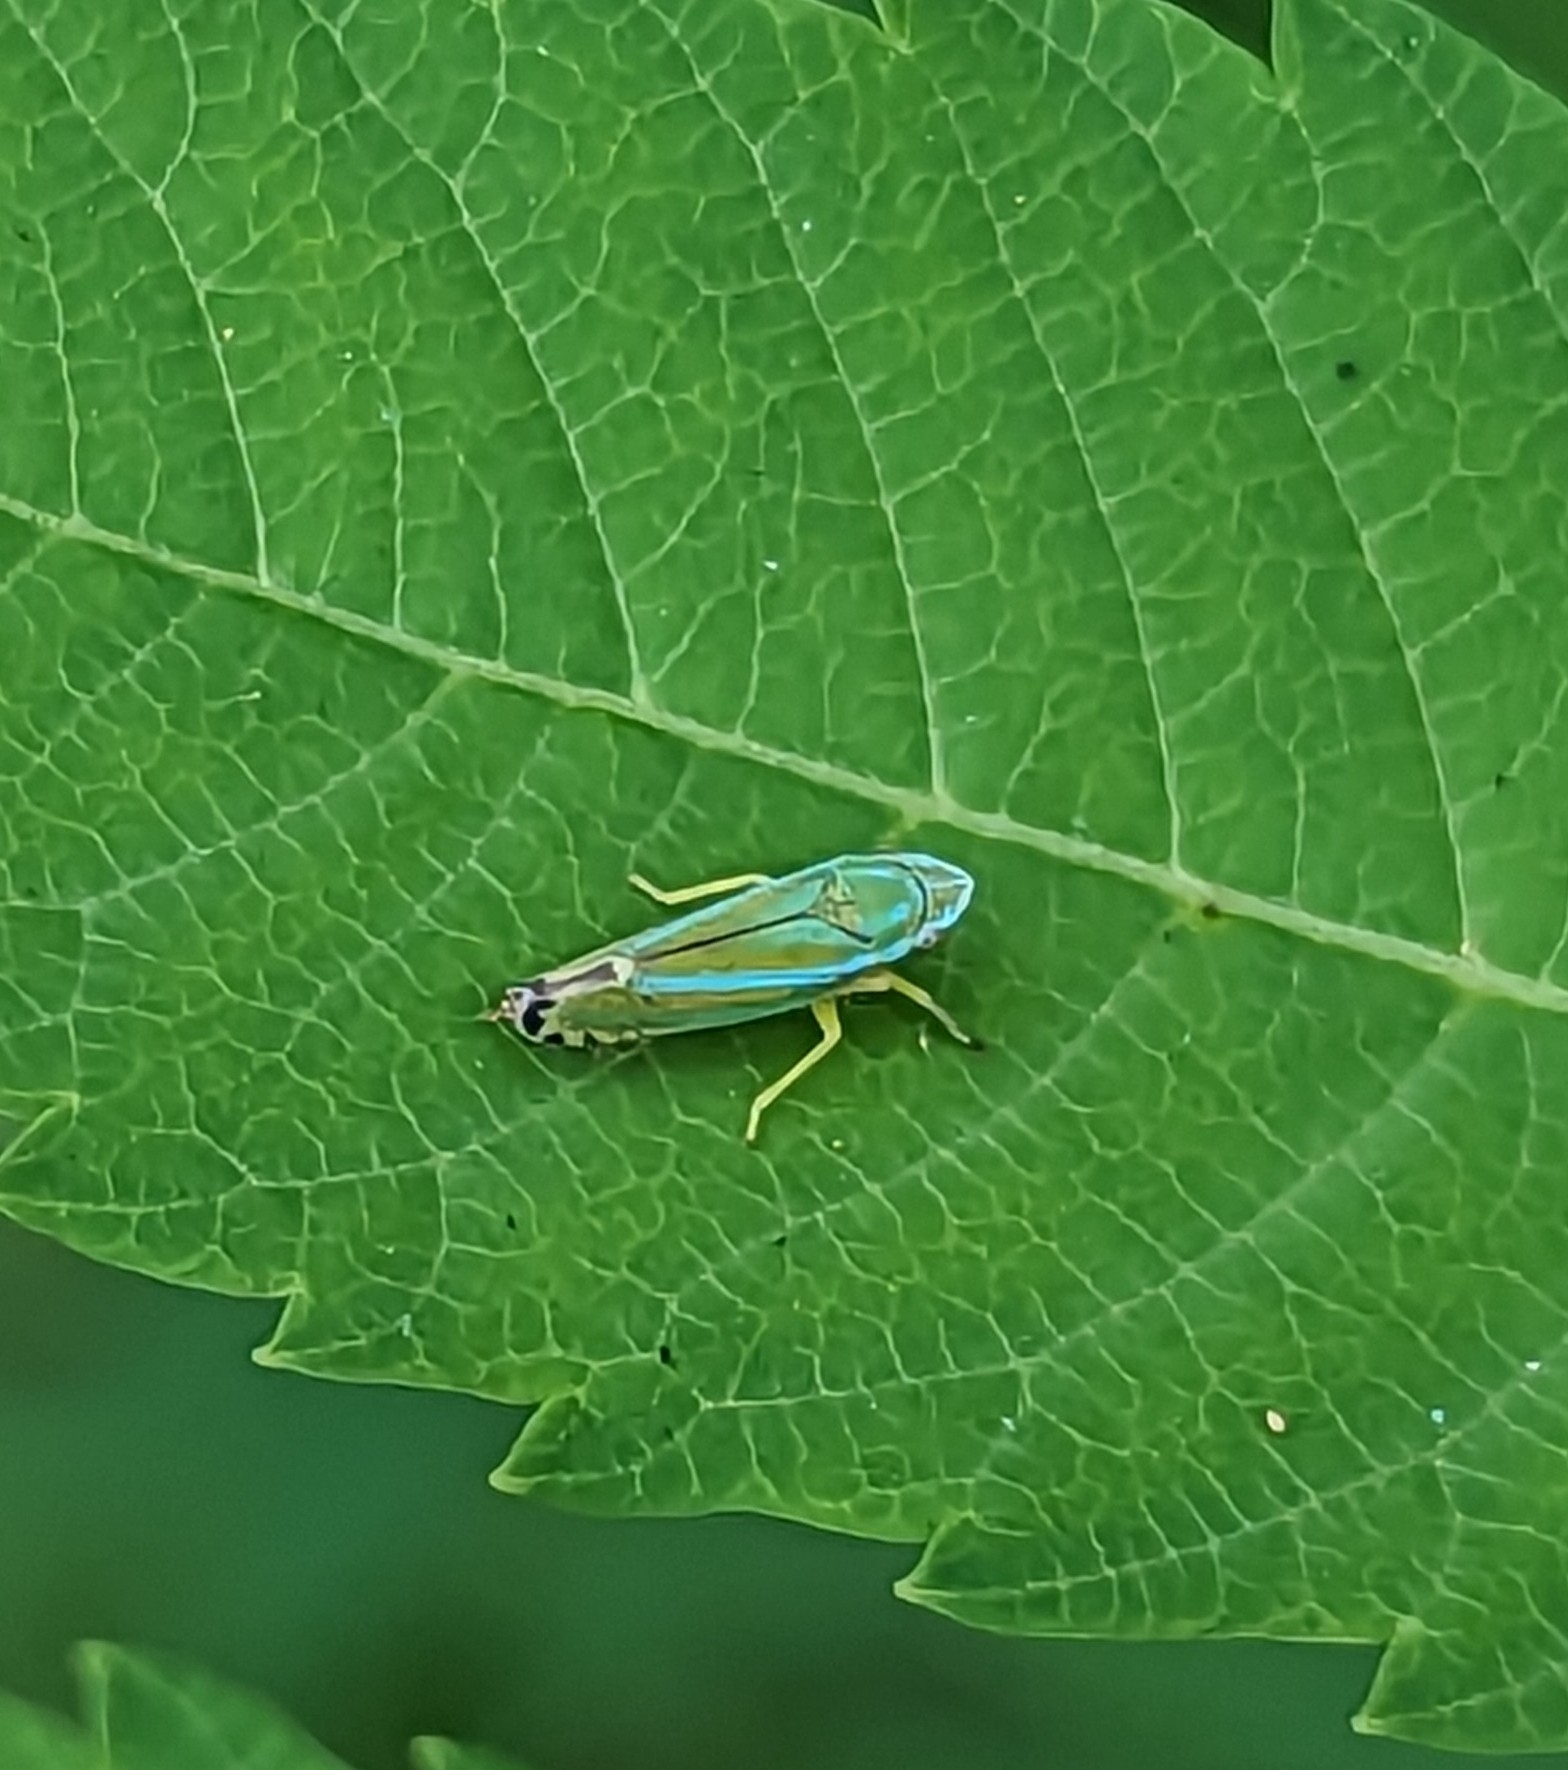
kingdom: Animalia
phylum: Arthropoda
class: Insecta
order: Hemiptera
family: Cicadellidae
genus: Graphocephala
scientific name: Graphocephala versuta
